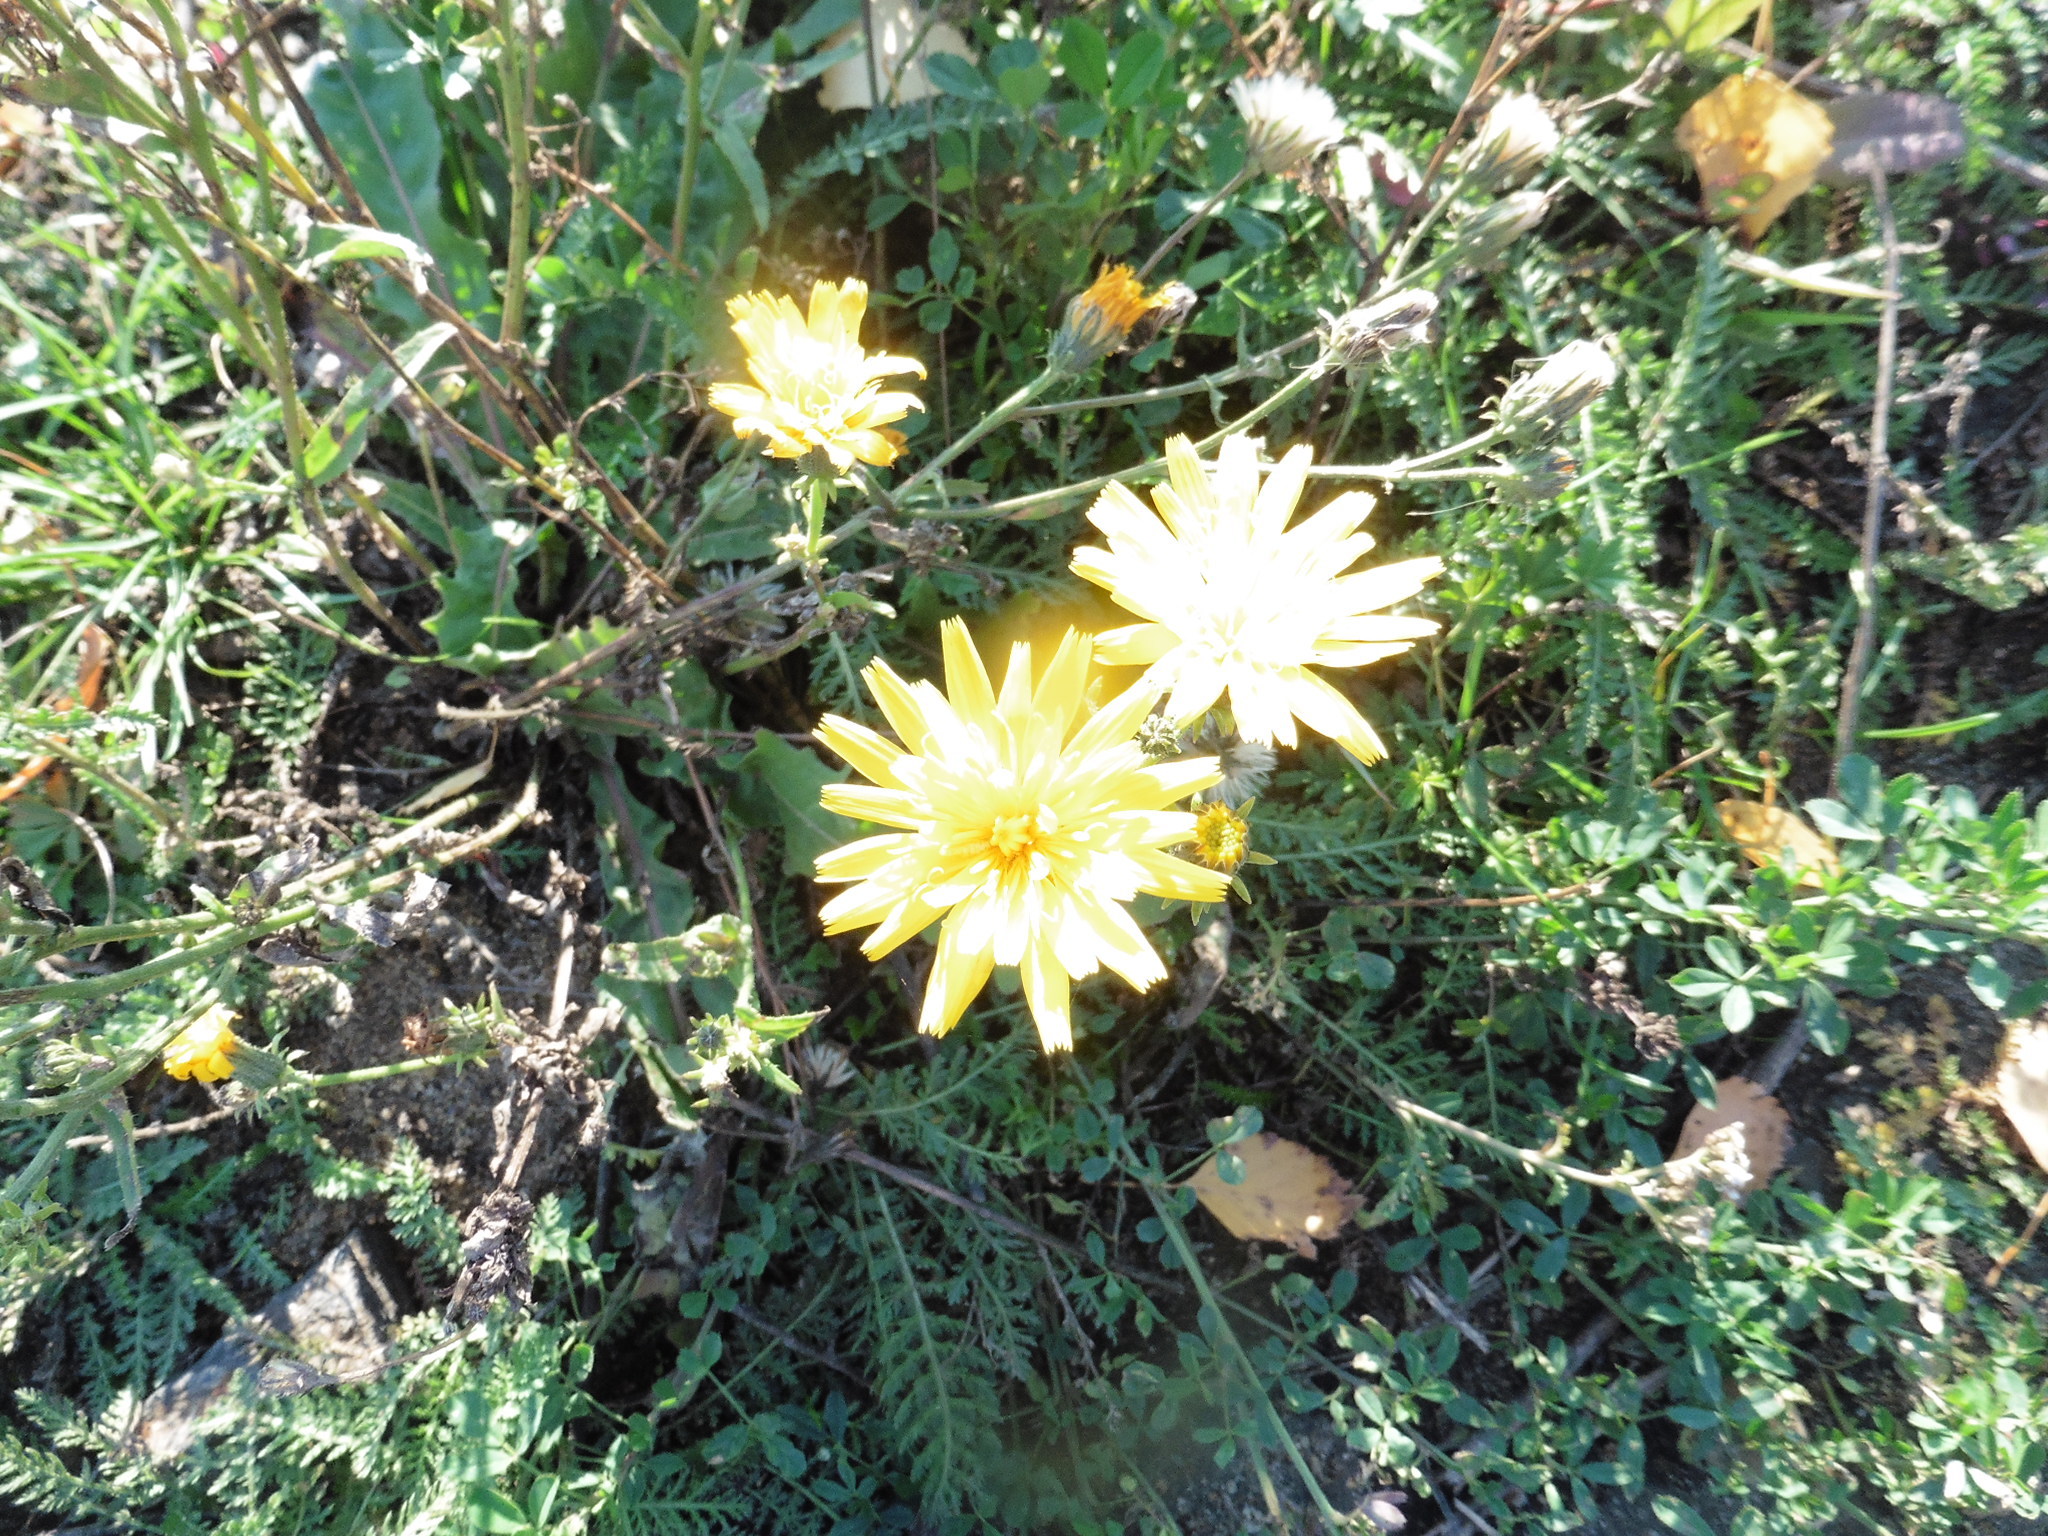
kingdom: Plantae
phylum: Tracheophyta
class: Magnoliopsida
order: Asterales
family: Asteraceae
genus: Picris
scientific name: Picris hieracioides
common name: Hawkweed oxtongue
